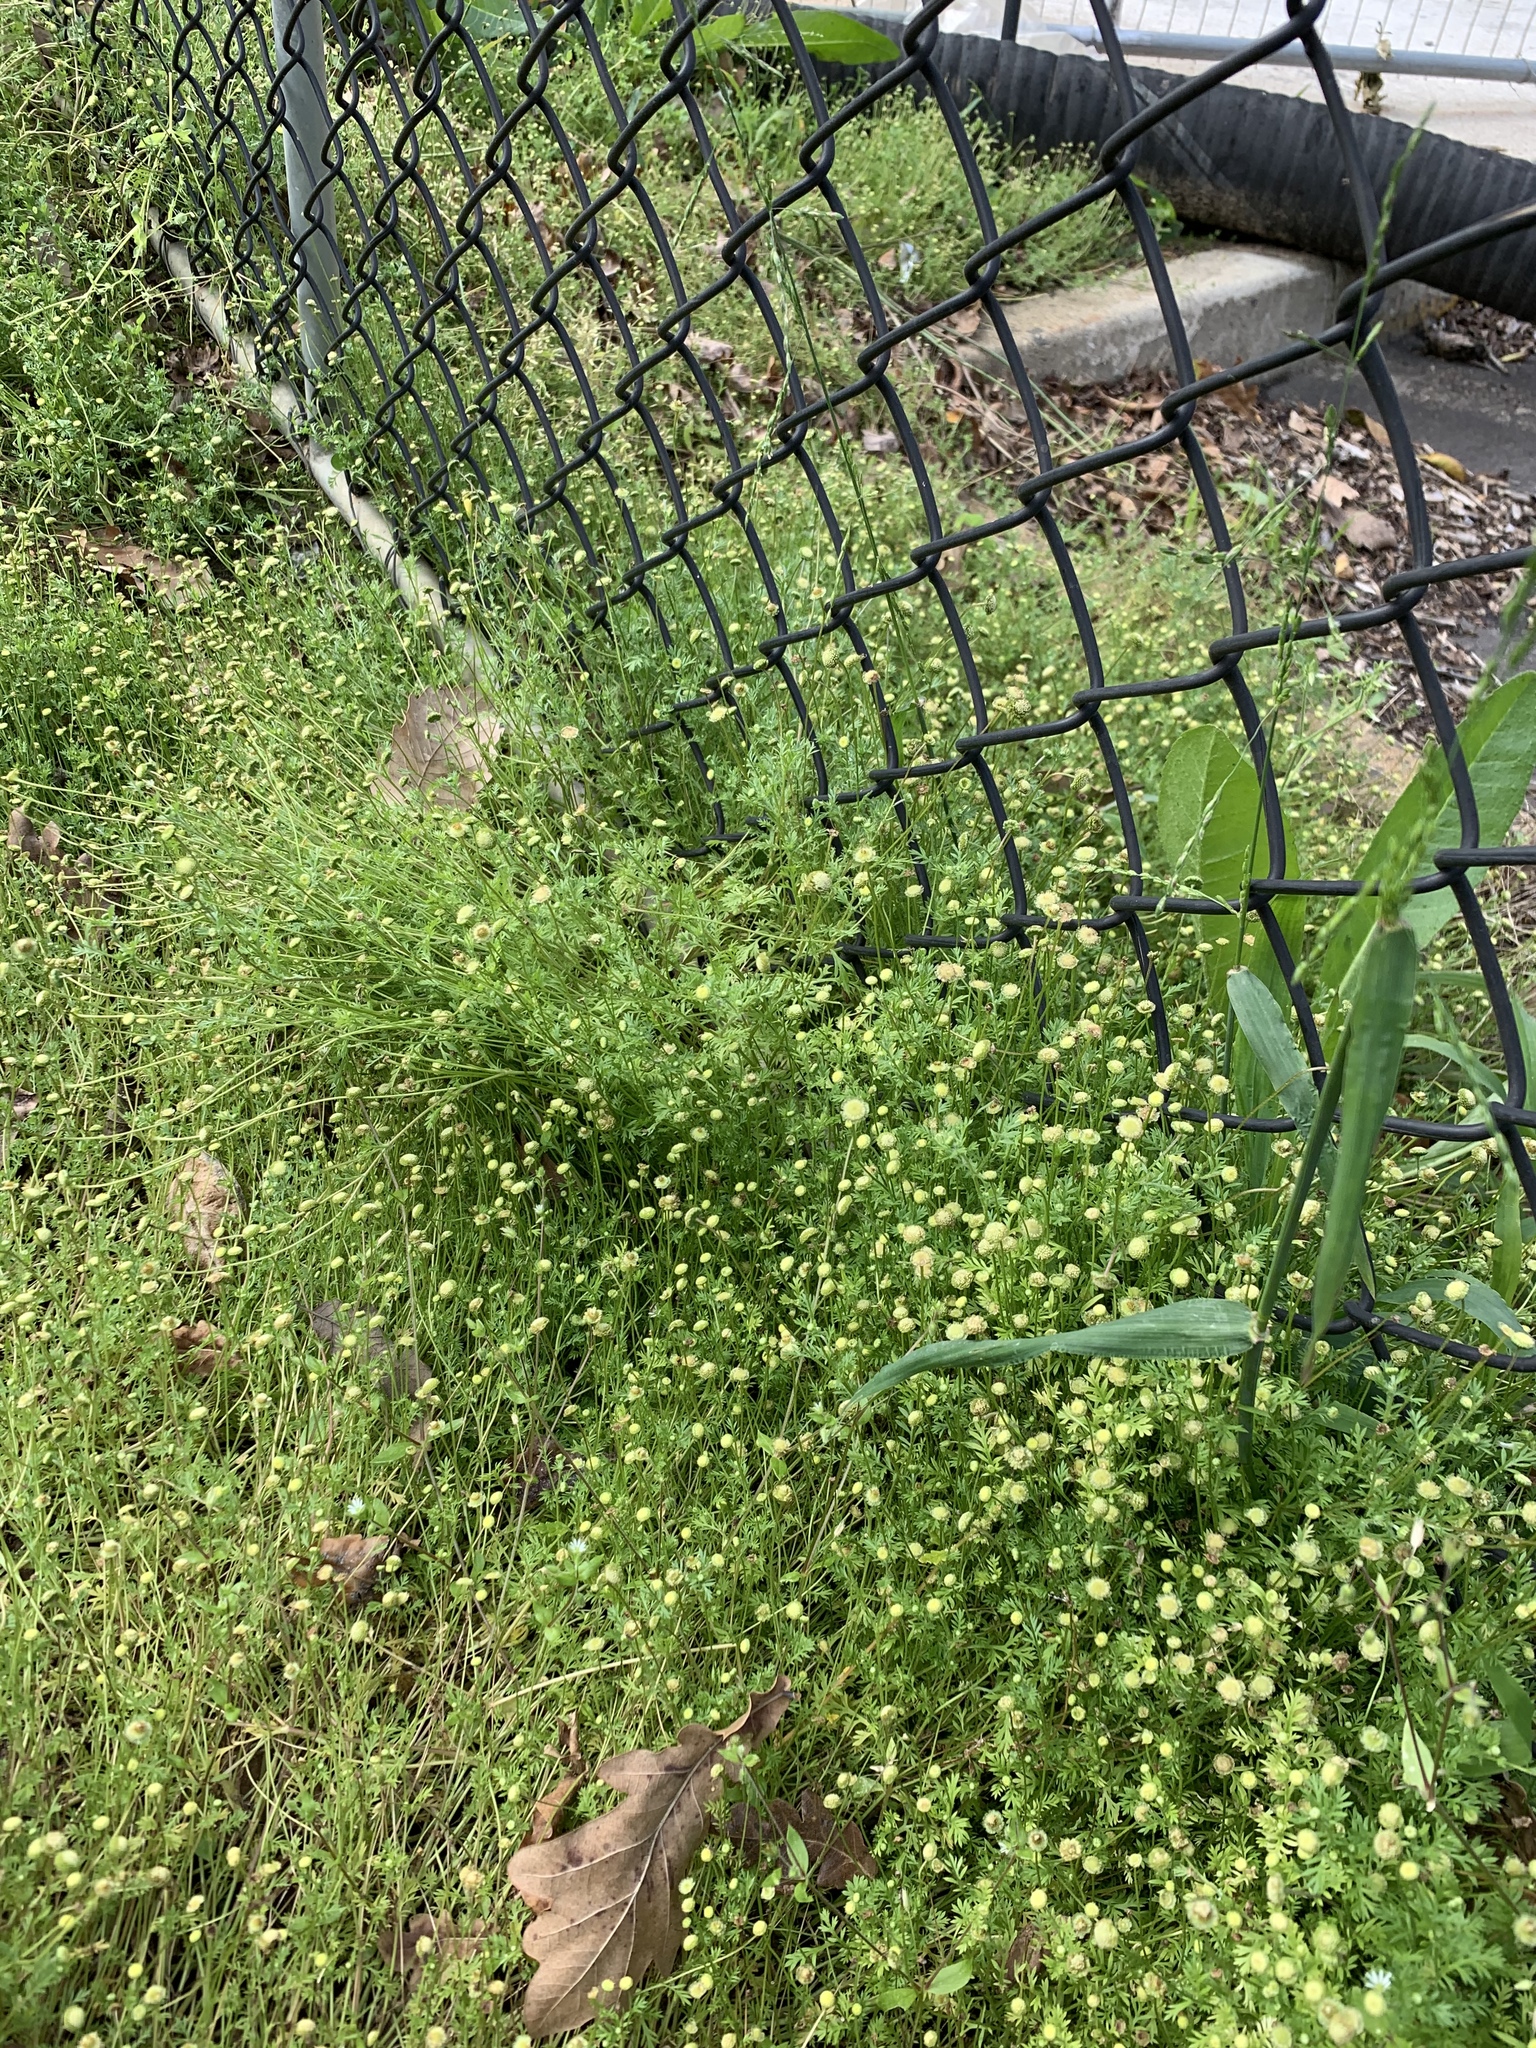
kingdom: Plantae
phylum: Tracheophyta
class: Magnoliopsida
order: Asterales
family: Asteraceae
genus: Cotula
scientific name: Cotula australis
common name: Australian waterbuttons
